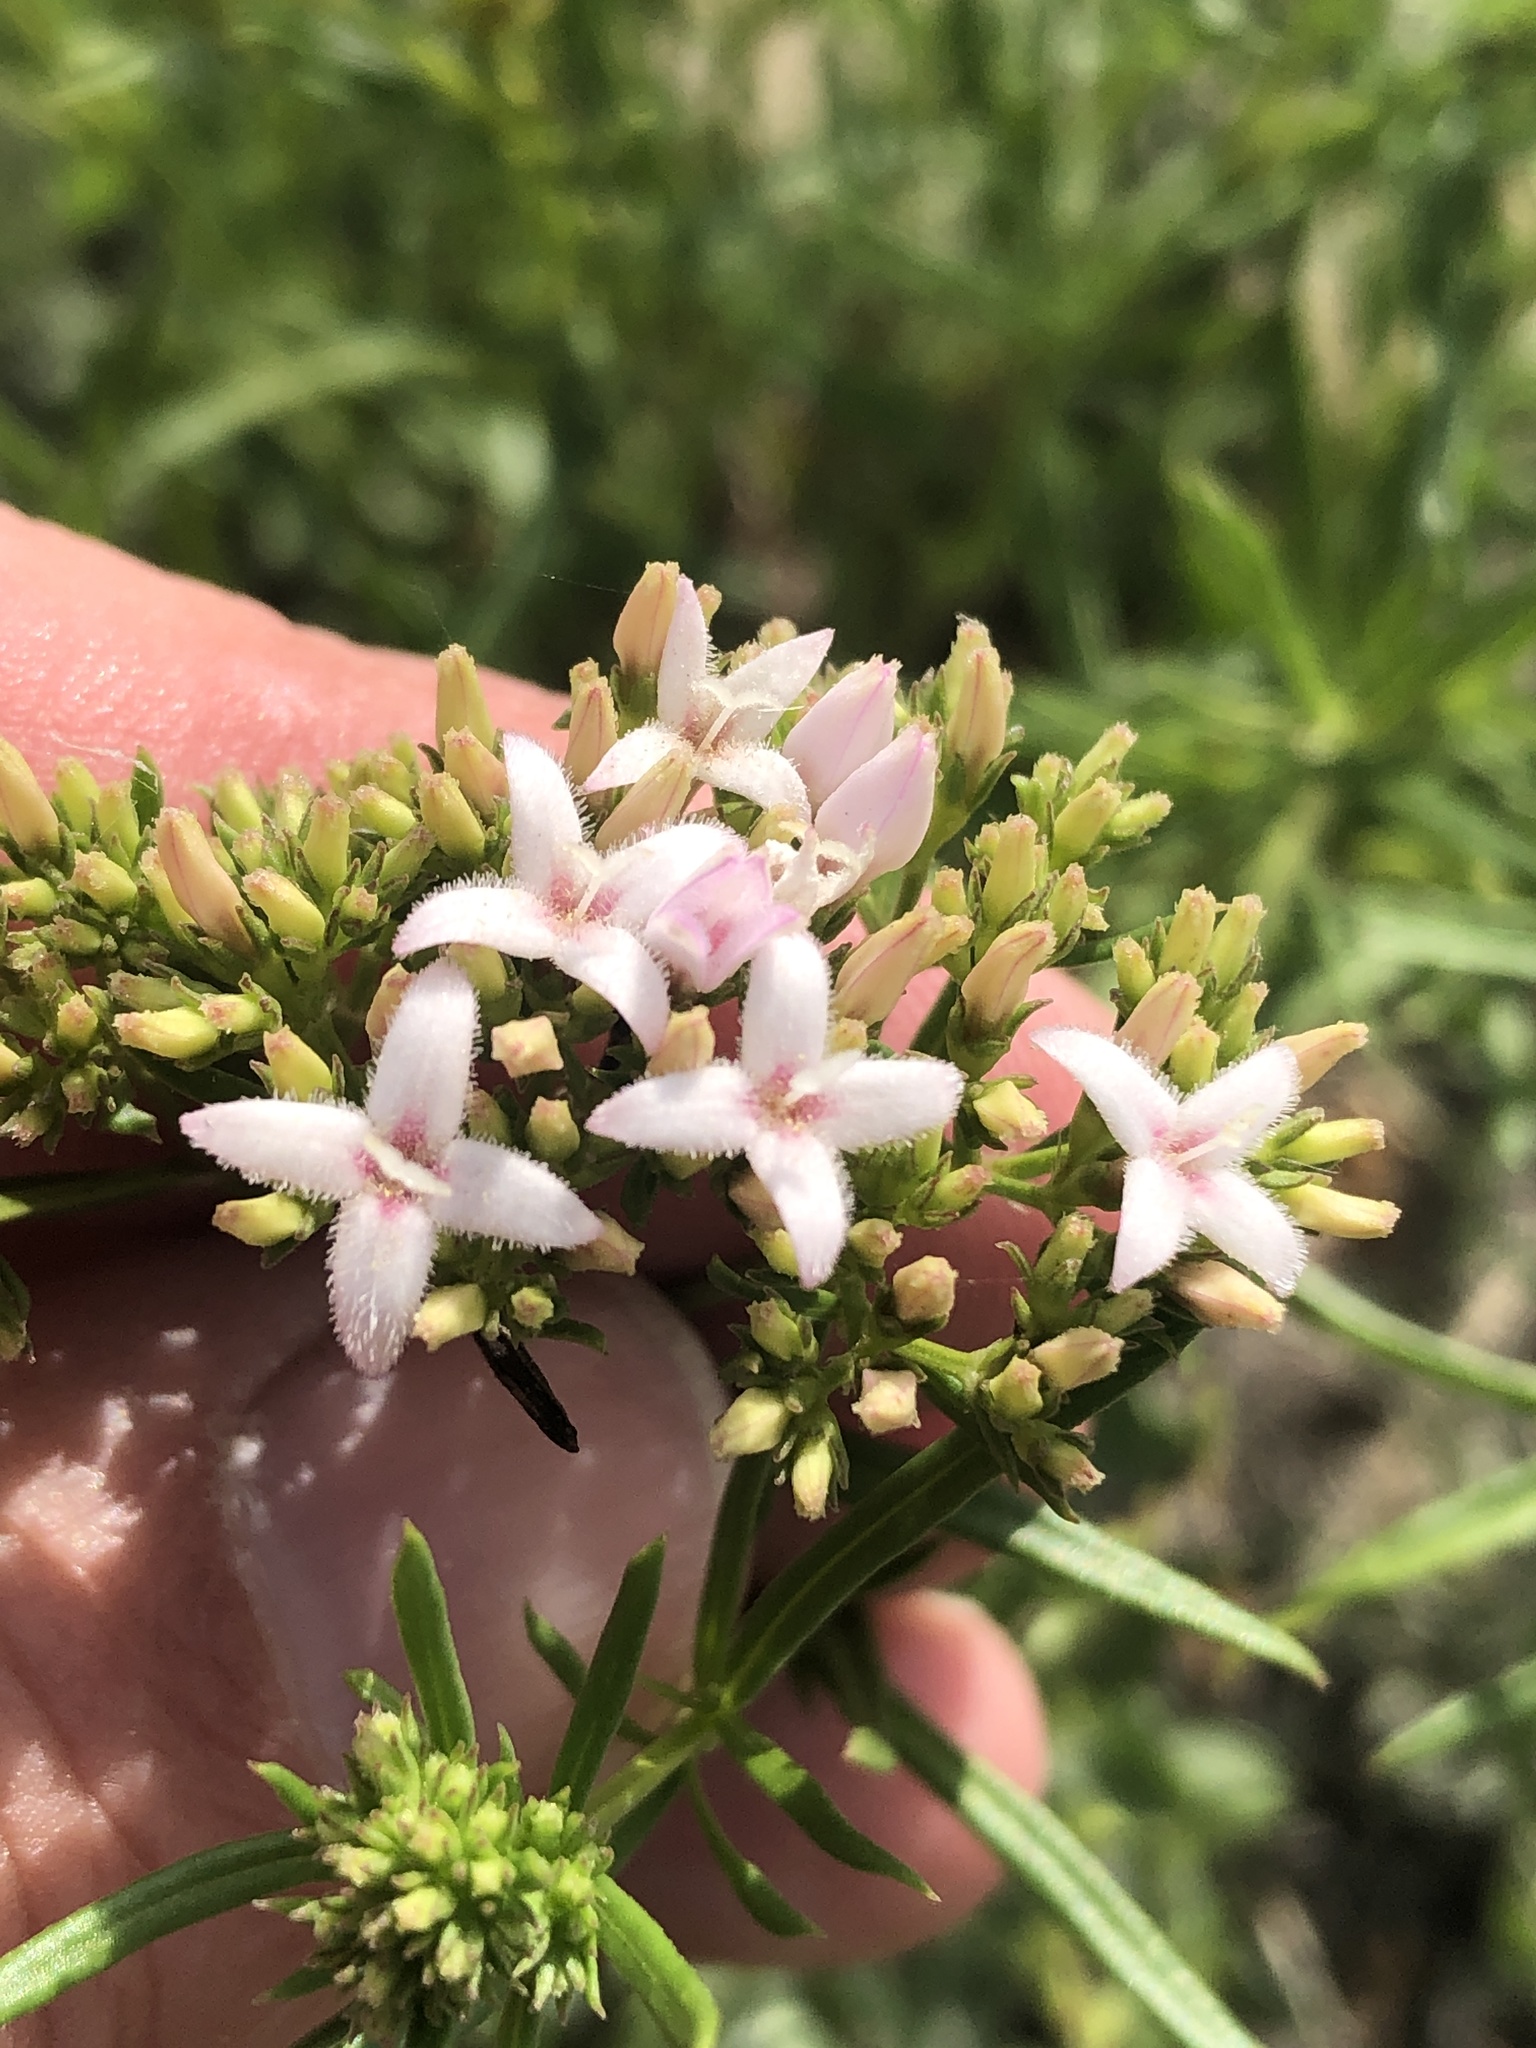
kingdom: Plantae
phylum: Tracheophyta
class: Magnoliopsida
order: Gentianales
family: Rubiaceae
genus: Stenaria
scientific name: Stenaria nigricans
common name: Diamondflowers
